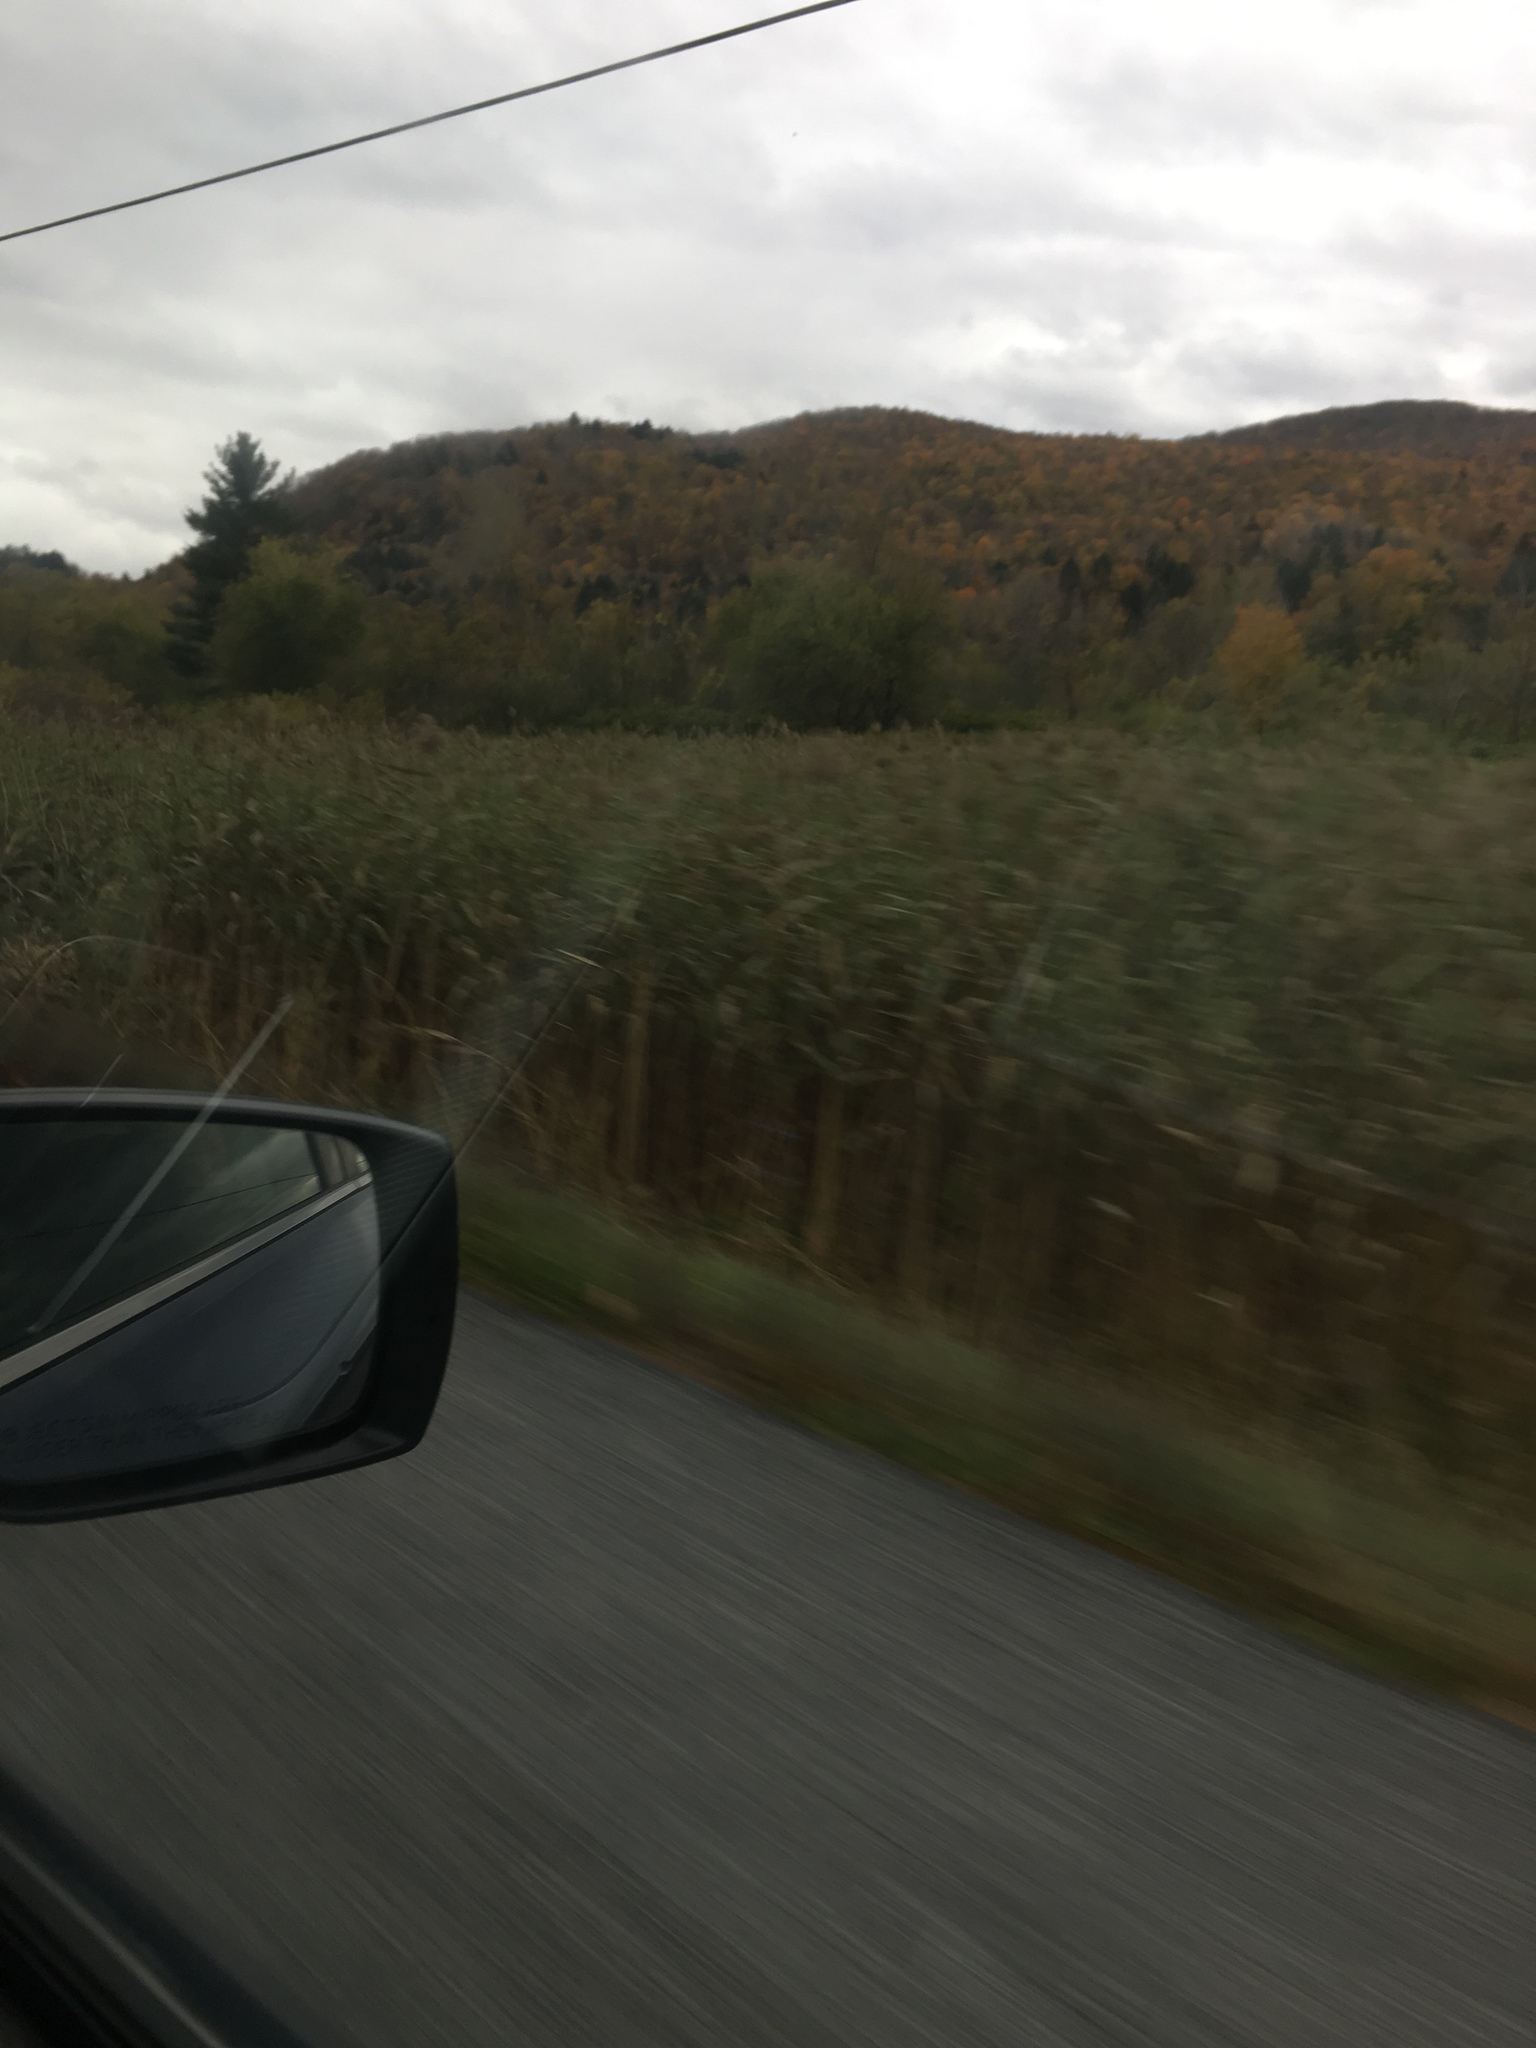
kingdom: Plantae
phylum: Tracheophyta
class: Liliopsida
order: Poales
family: Poaceae
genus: Phragmites
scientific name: Phragmites australis
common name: Common reed
